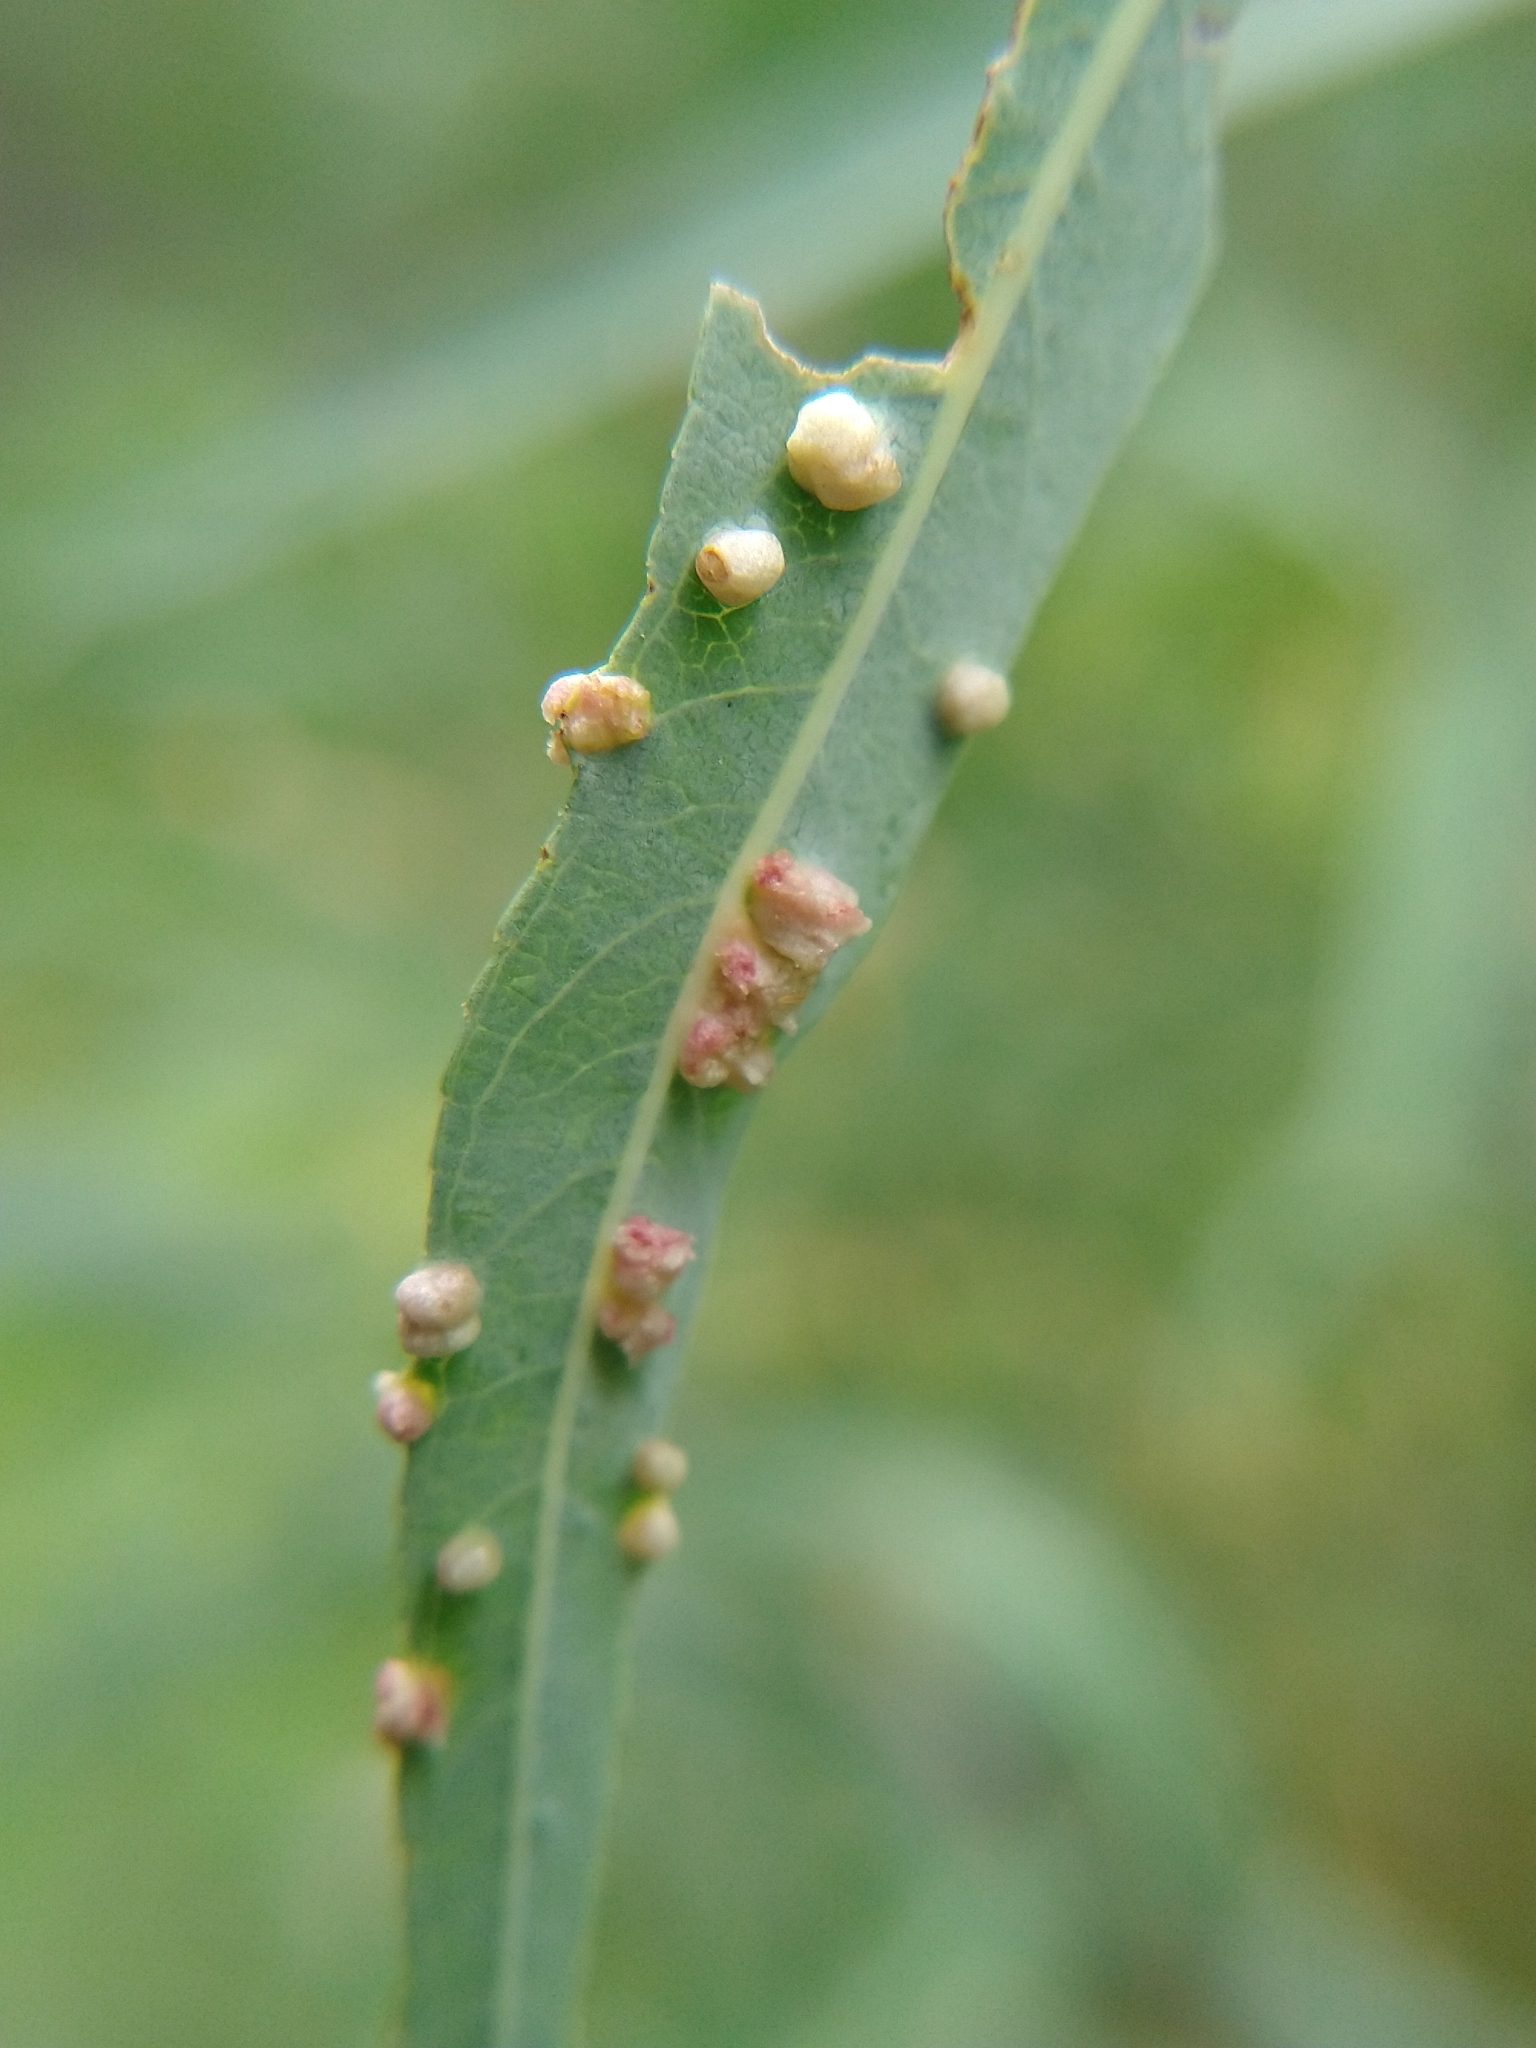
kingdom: Animalia
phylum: Arthropoda
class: Arachnida
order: Trombidiformes
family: Eriophyidae
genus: Aculus
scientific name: Aculus tetanothrix
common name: Willow bead gall mite
